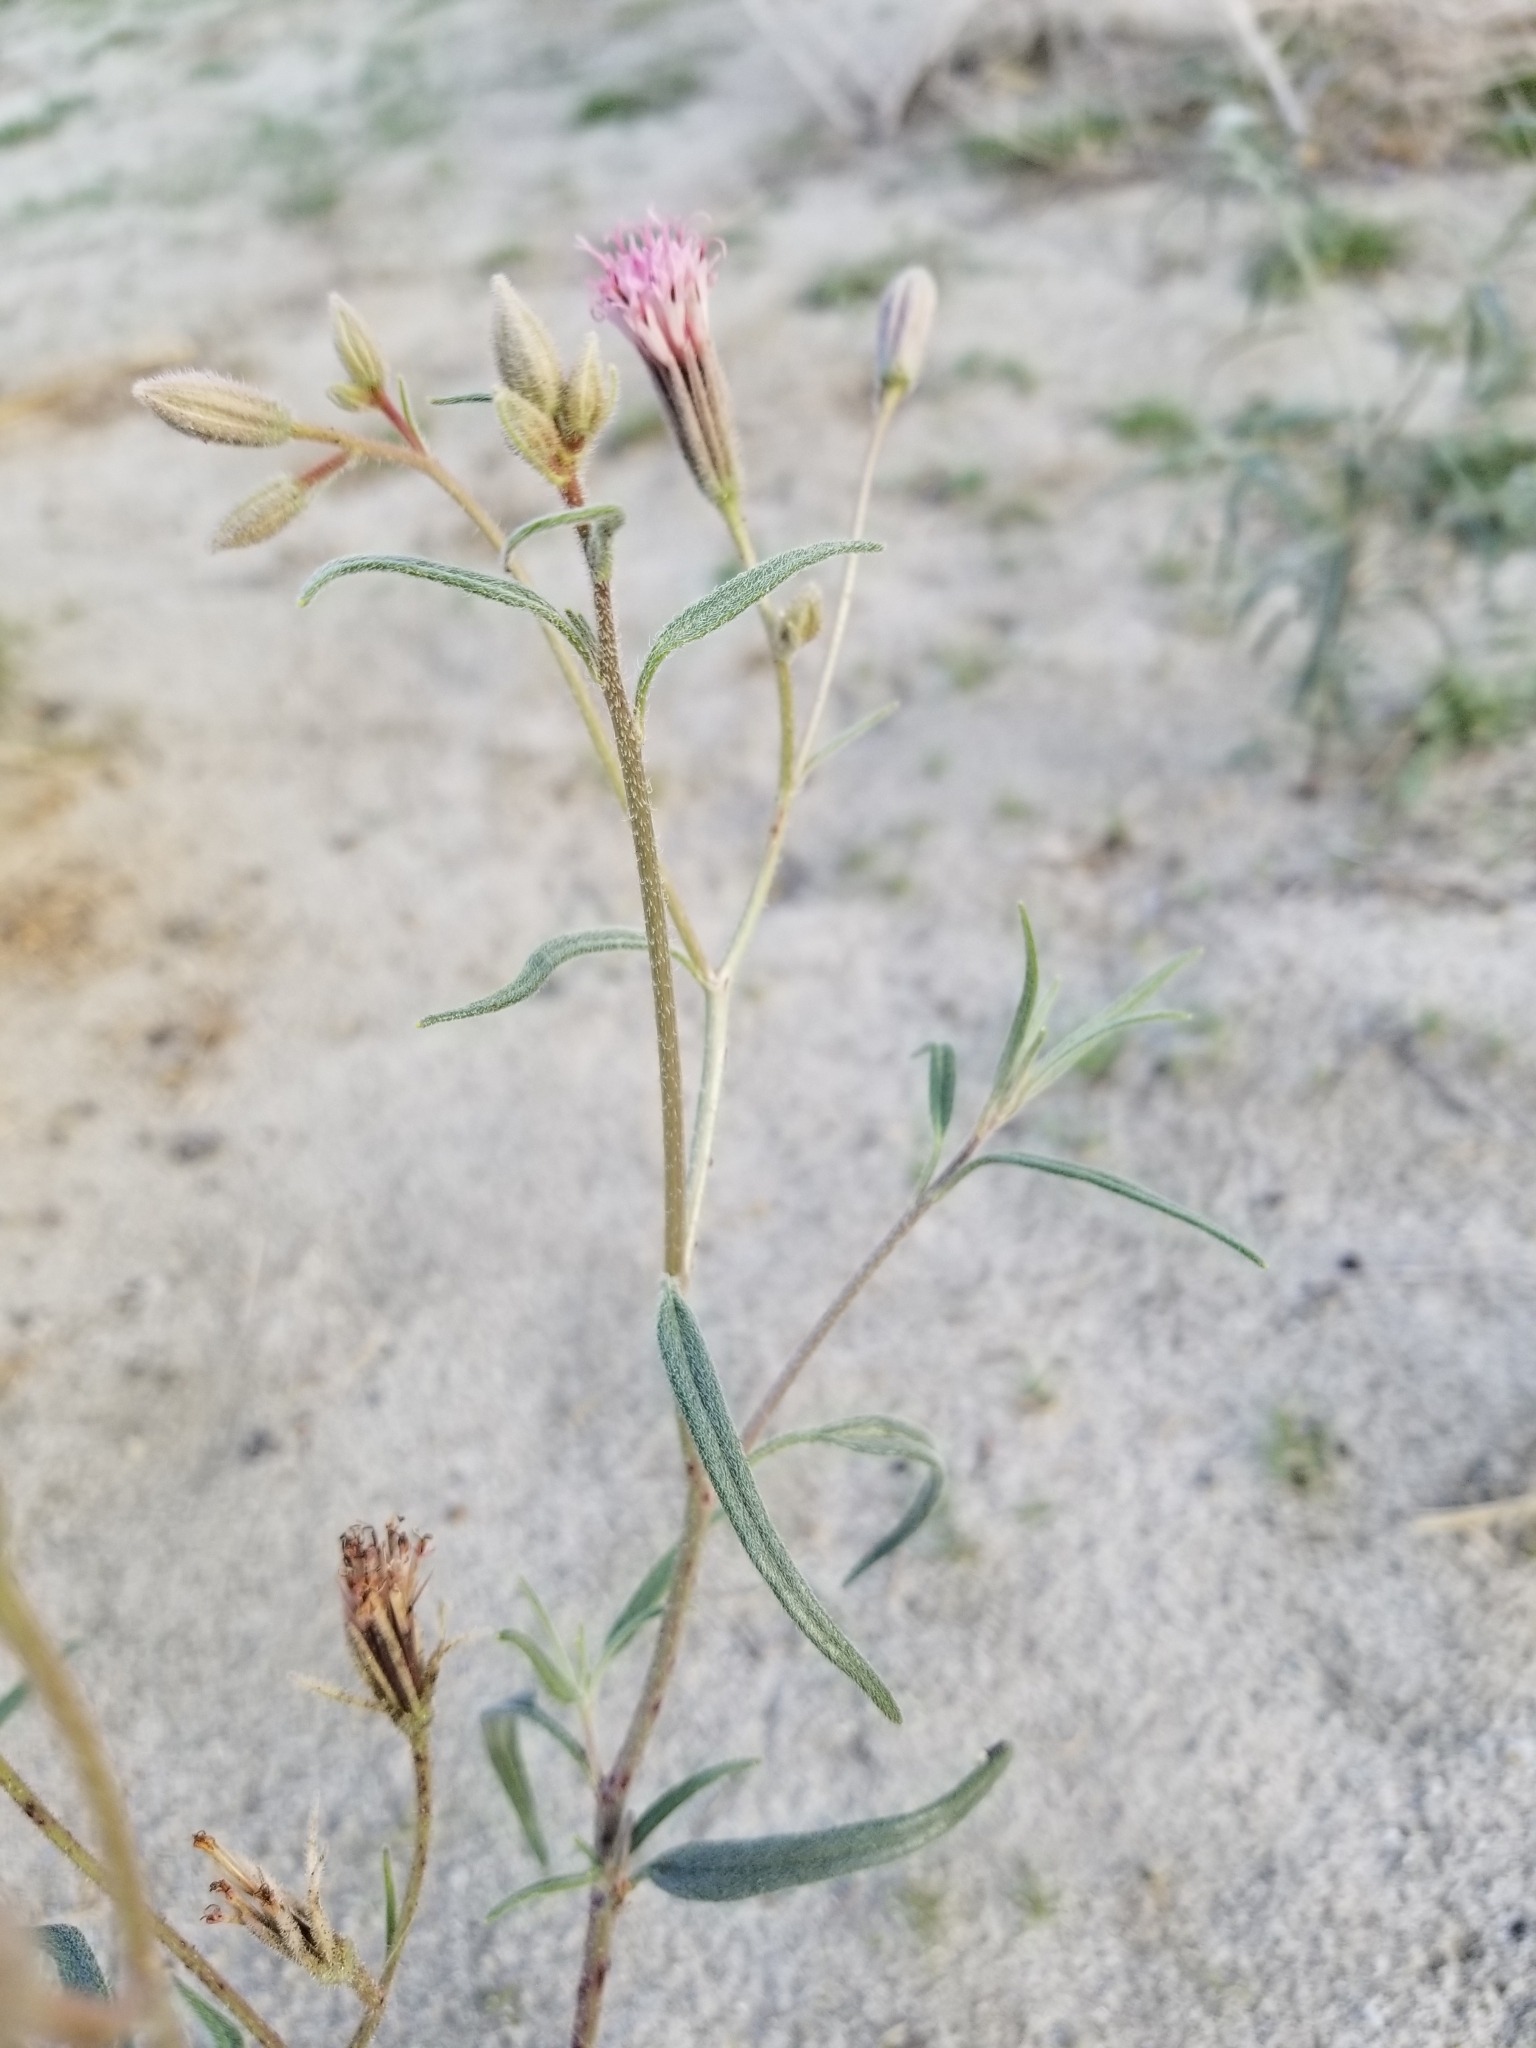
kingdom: Plantae
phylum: Tracheophyta
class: Magnoliopsida
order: Asterales
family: Asteraceae
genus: Palafoxia
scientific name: Palafoxia arida
